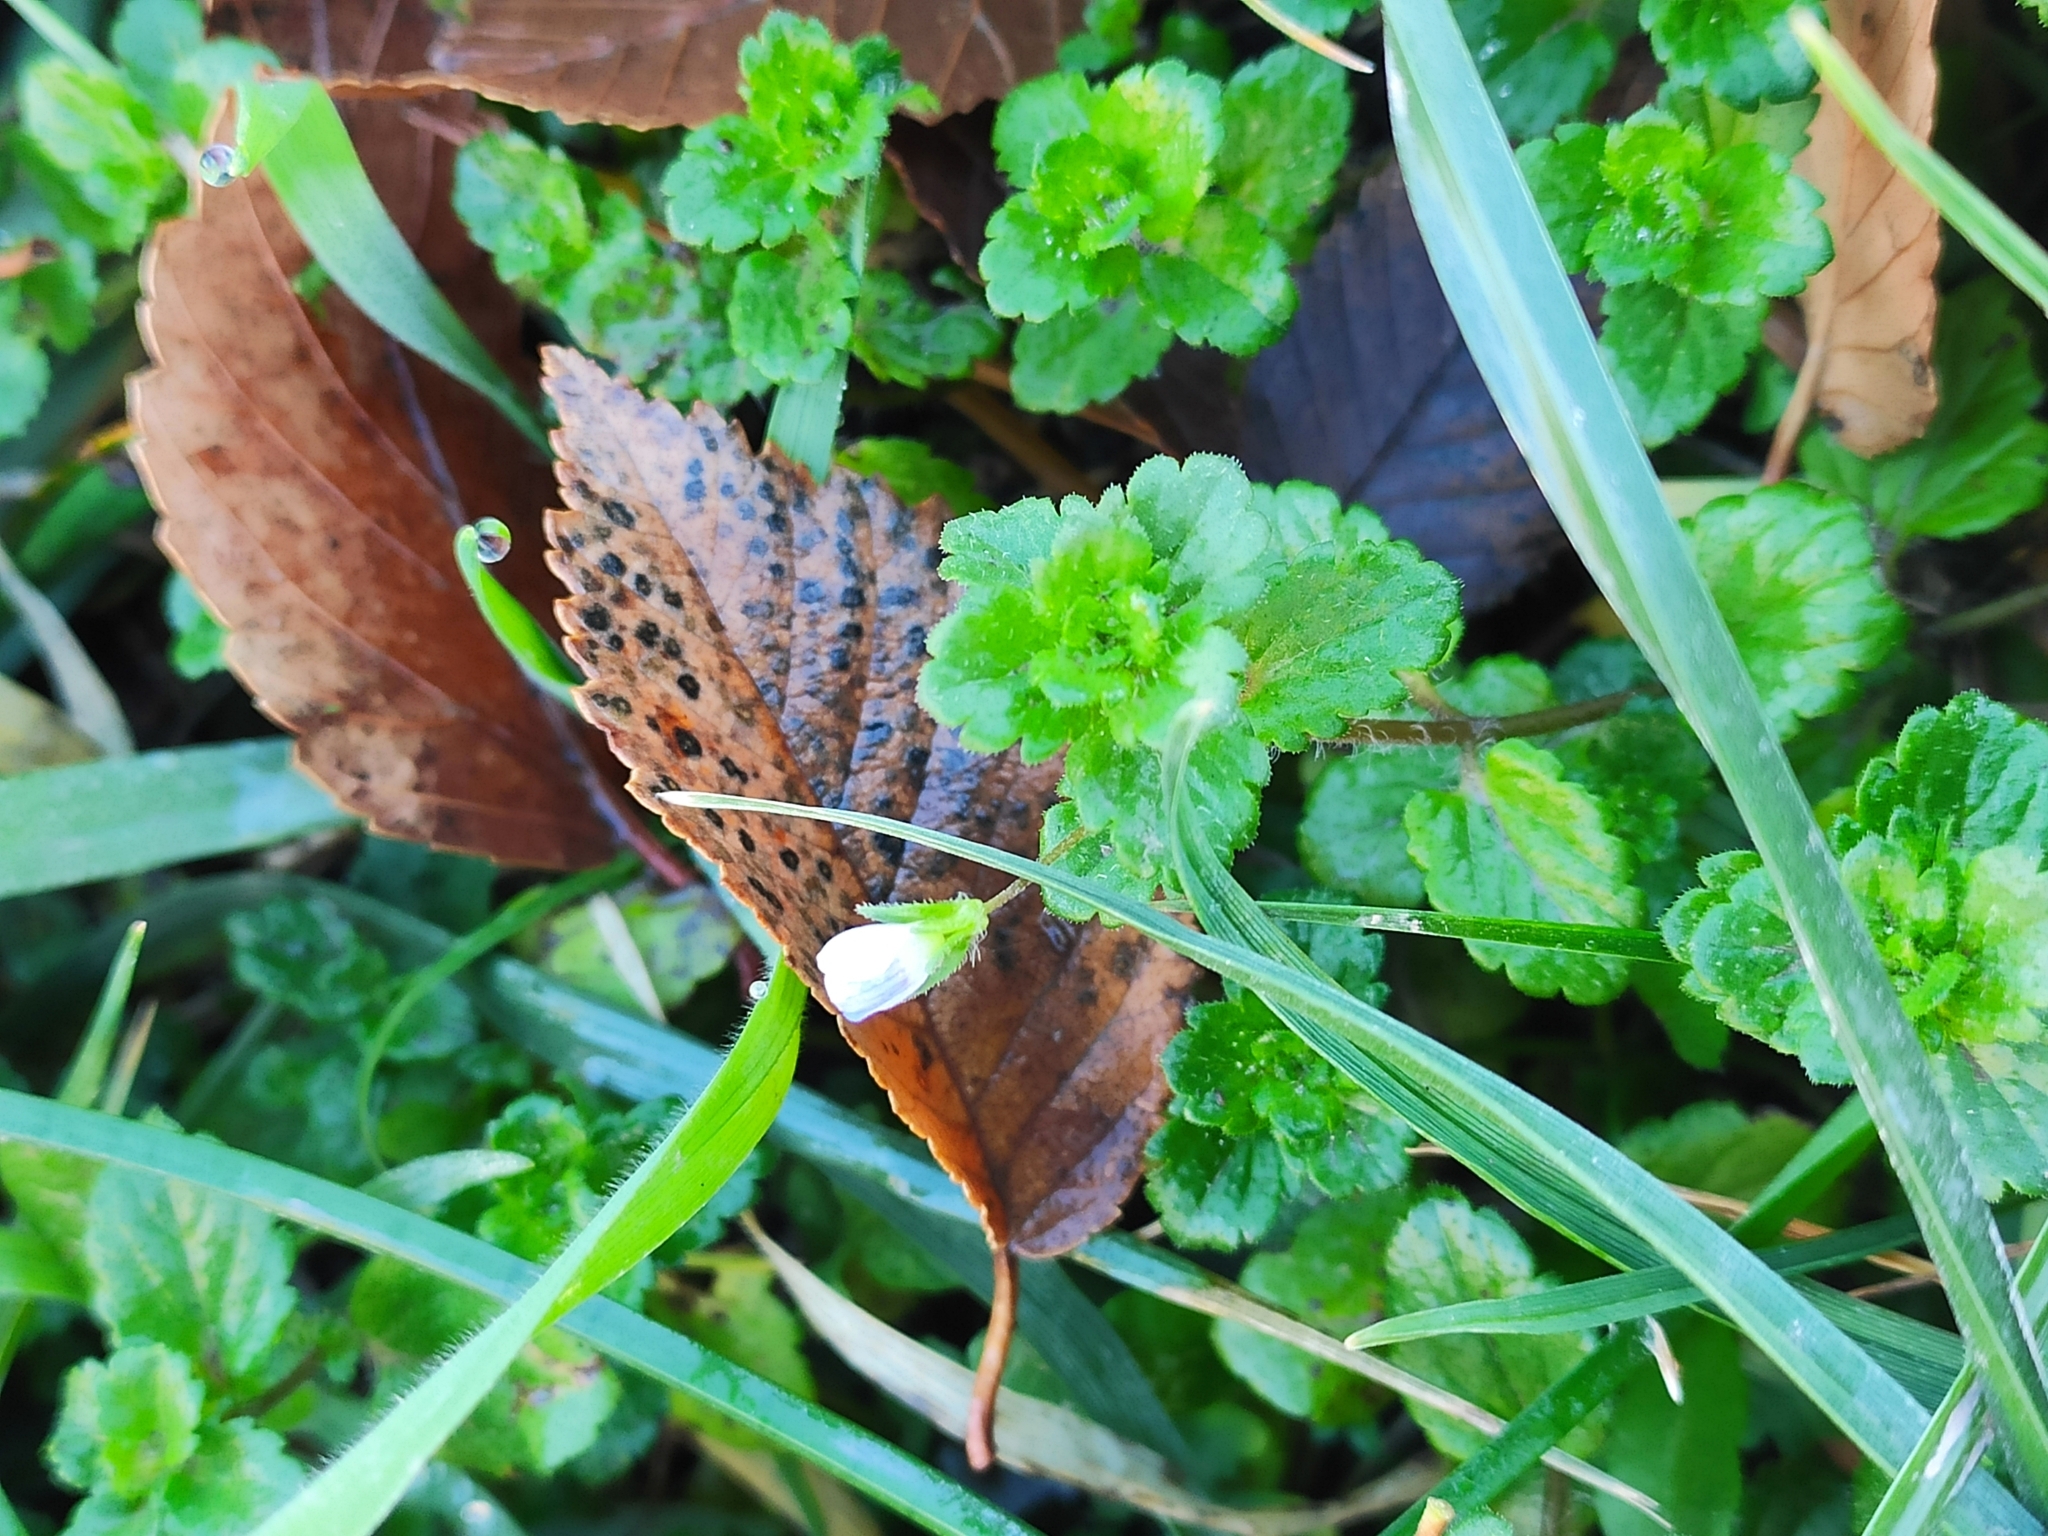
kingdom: Plantae
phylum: Tracheophyta
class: Magnoliopsida
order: Lamiales
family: Plantaginaceae
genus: Veronica
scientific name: Veronica persica
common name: Common field-speedwell
